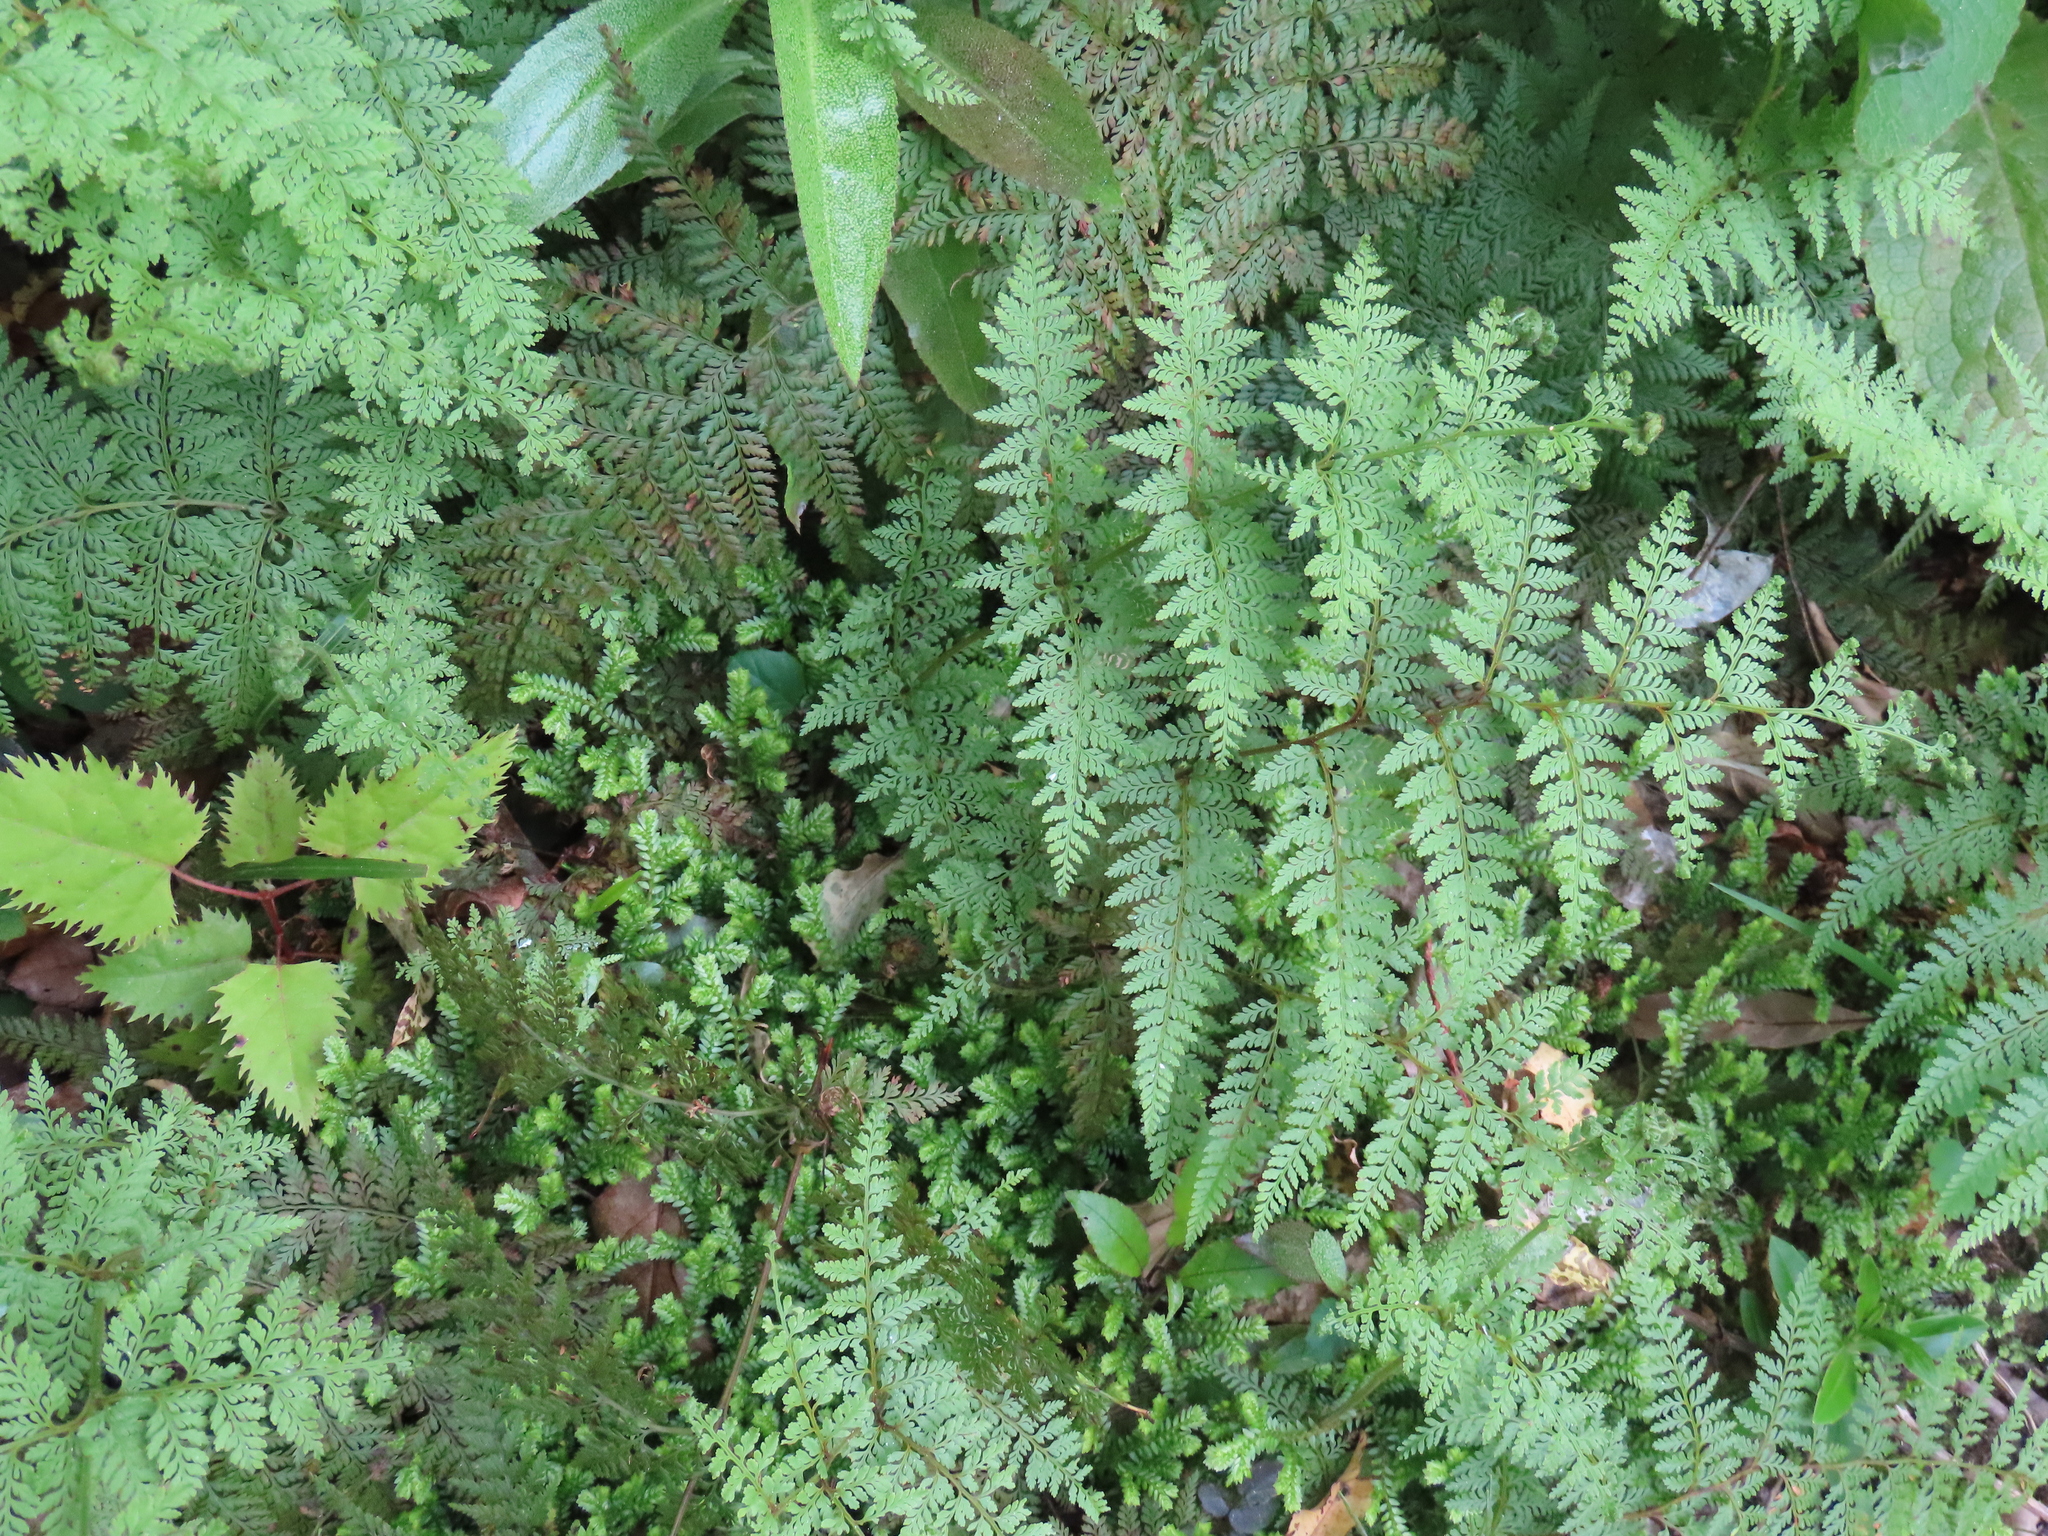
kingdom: Plantae
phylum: Tracheophyta
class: Polypodiopsida
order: Polypodiales
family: Dennstaedtiaceae
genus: Paesia
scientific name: Paesia scaberula
